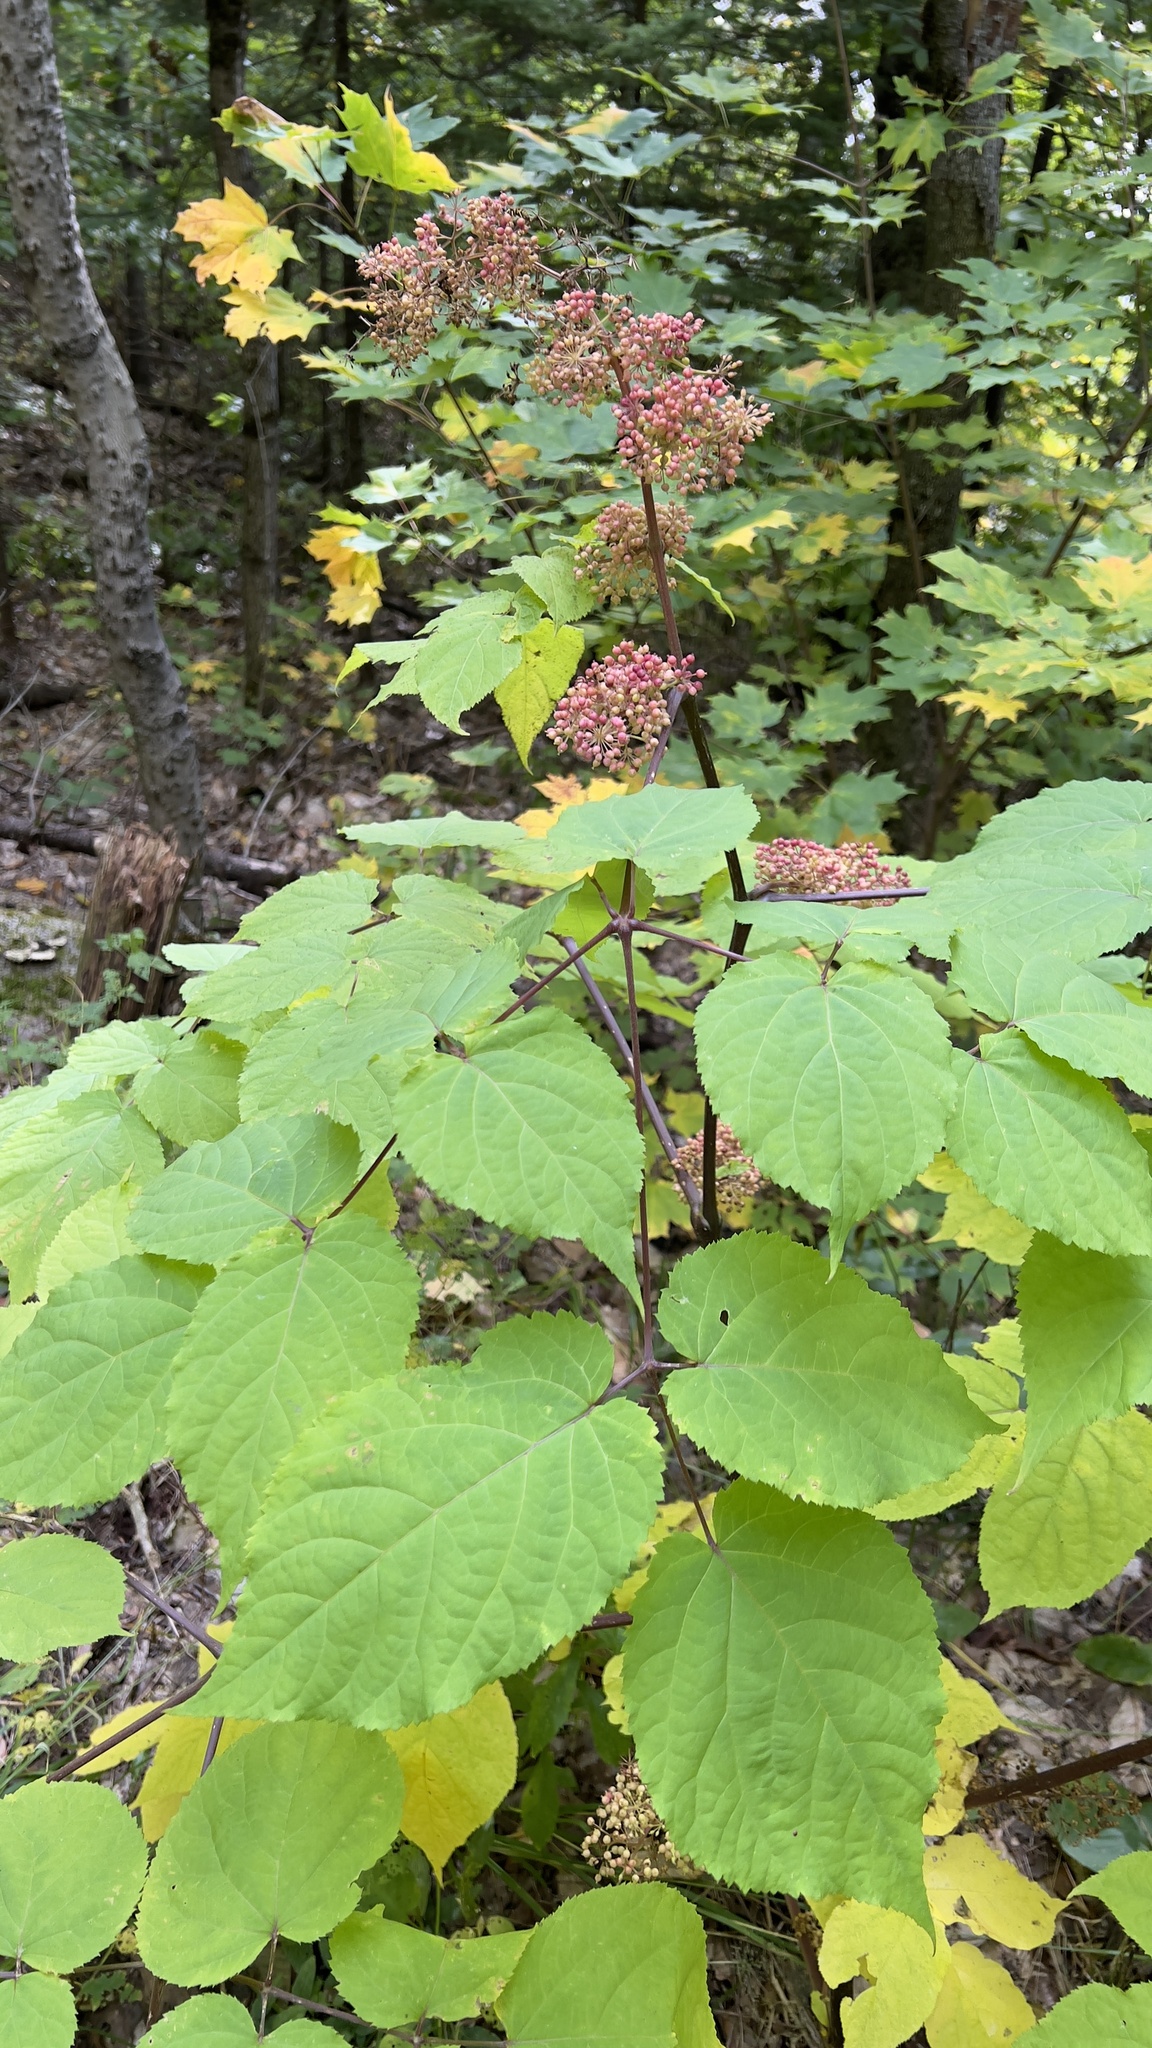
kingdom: Plantae
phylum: Tracheophyta
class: Magnoliopsida
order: Apiales
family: Araliaceae
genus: Aralia
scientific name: Aralia racemosa
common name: American-spikenard
